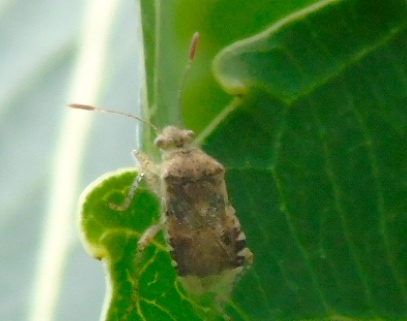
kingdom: Animalia
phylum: Arthropoda
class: Insecta
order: Hemiptera
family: Rhopalidae
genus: Niesthrea
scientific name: Niesthrea
